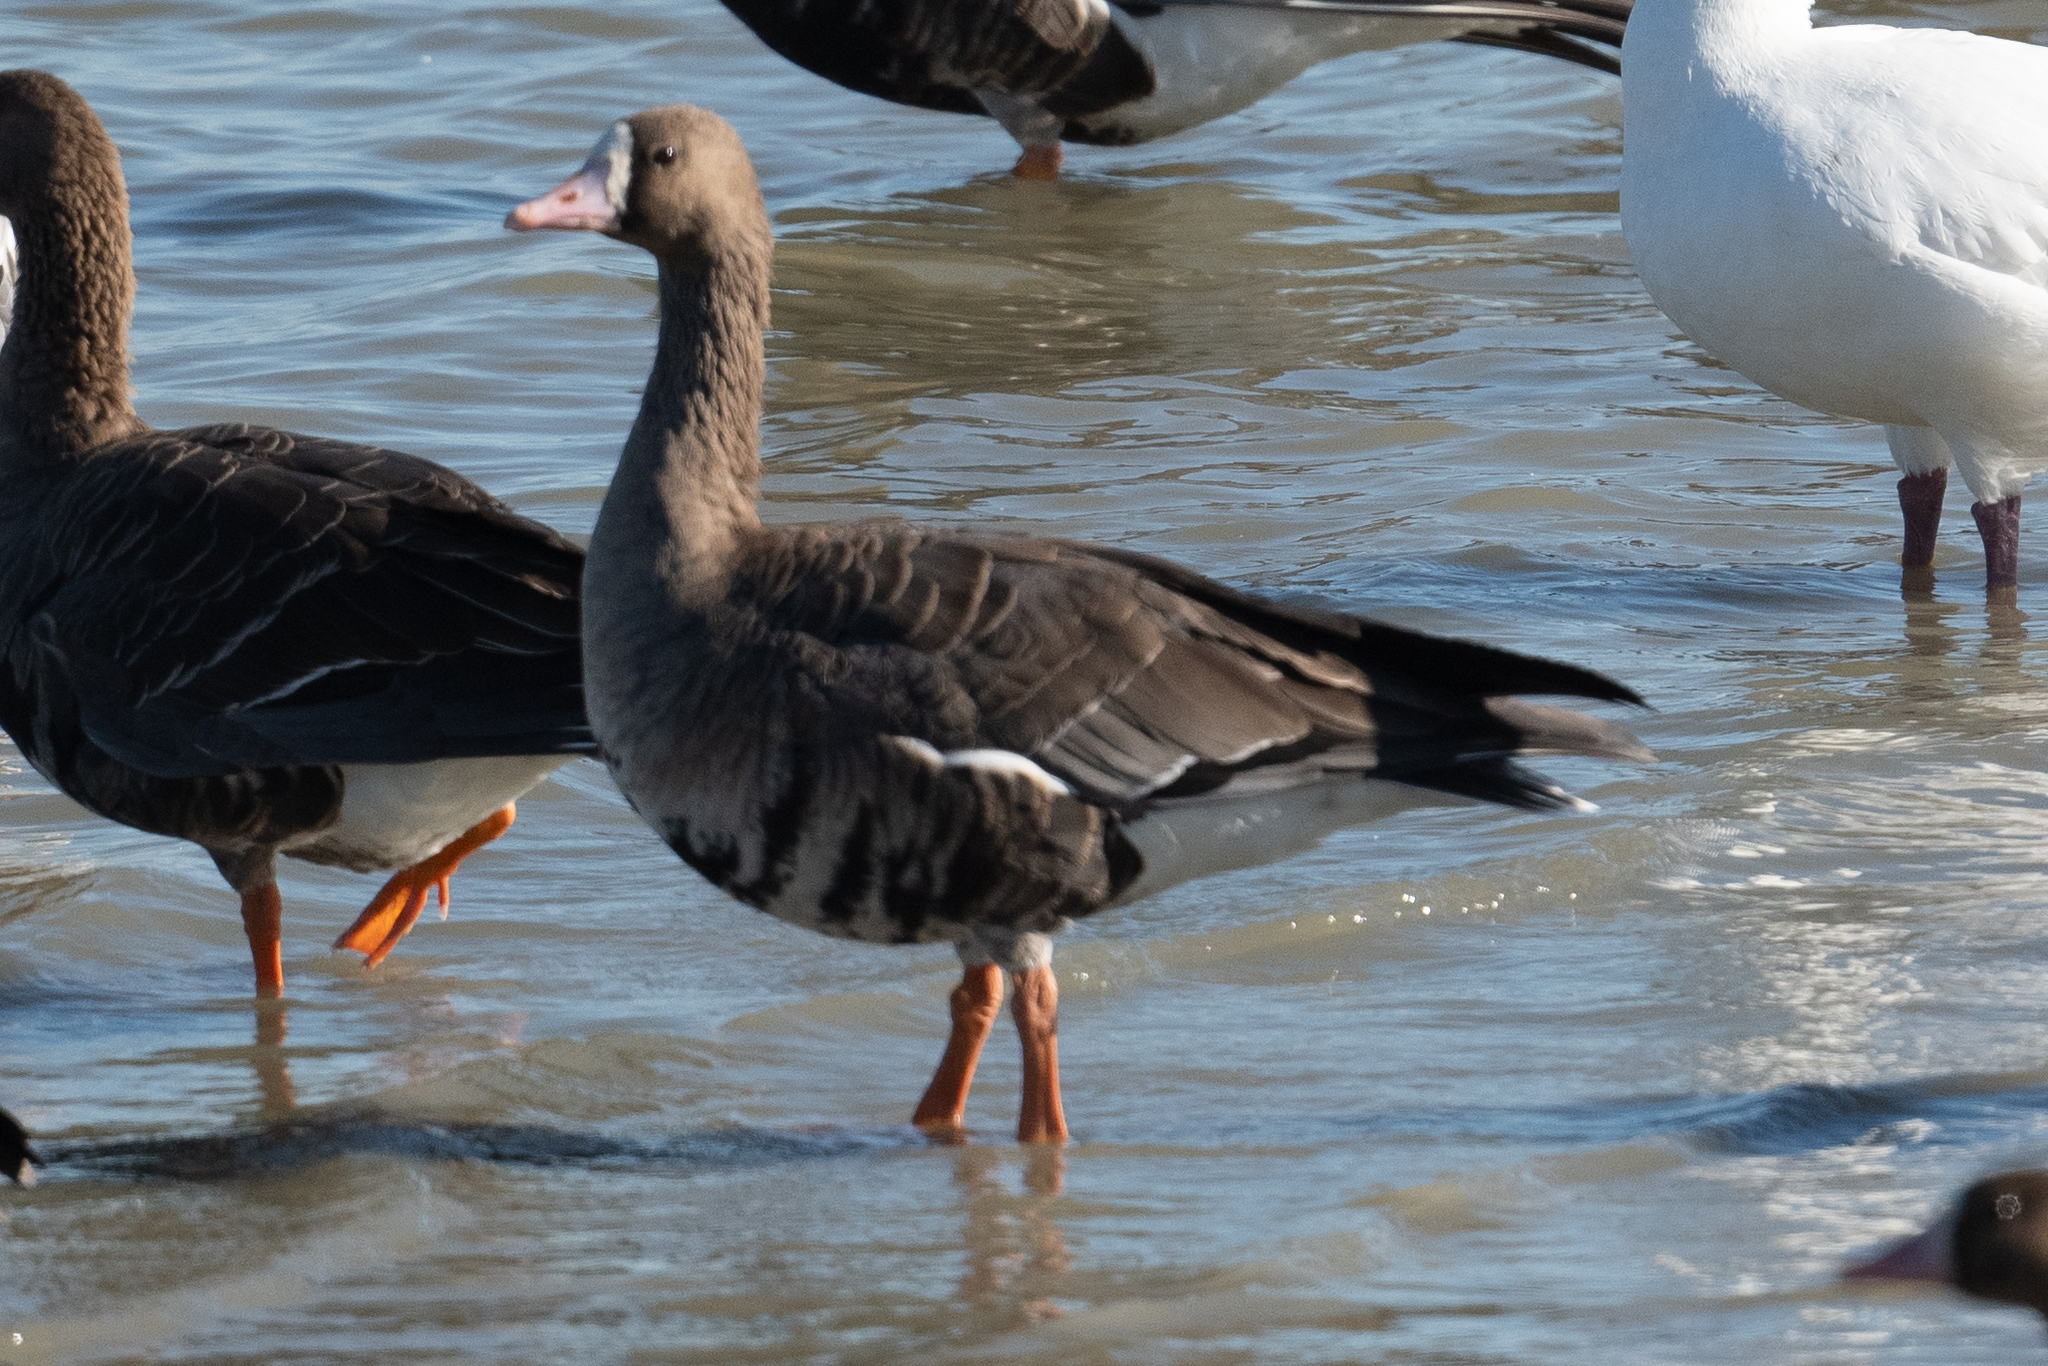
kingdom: Animalia
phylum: Chordata
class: Aves
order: Anseriformes
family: Anatidae
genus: Anser
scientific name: Anser albifrons
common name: Greater white-fronted goose
